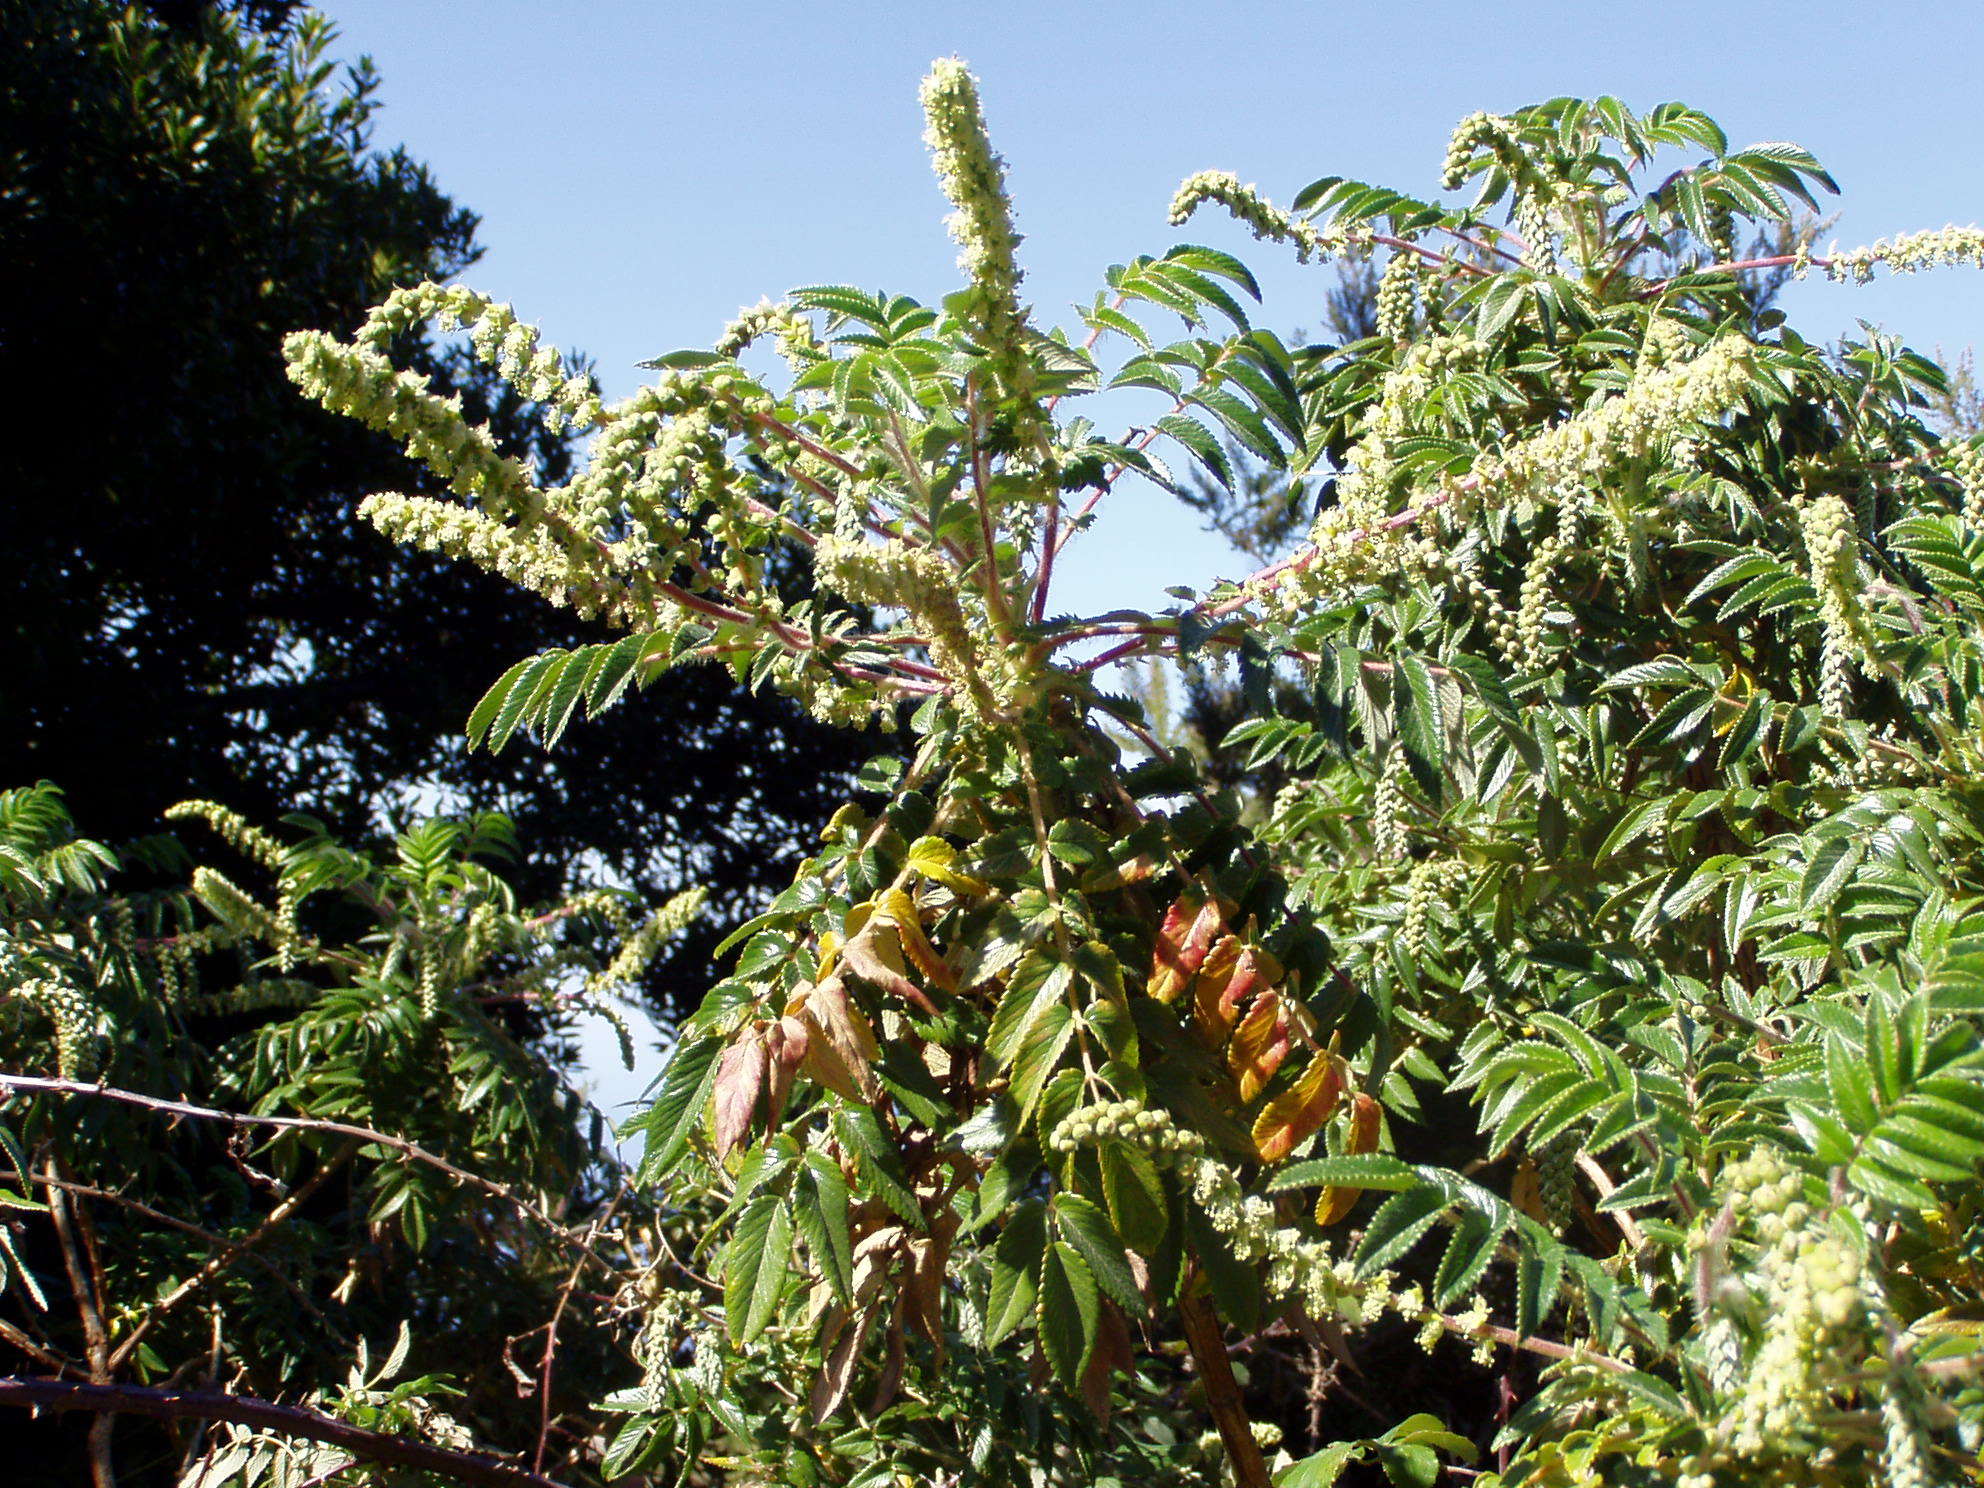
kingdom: Plantae
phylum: Tracheophyta
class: Magnoliopsida
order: Rosales
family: Rosaceae
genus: Bencomia
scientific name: Bencomia caudata
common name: Bencomia
